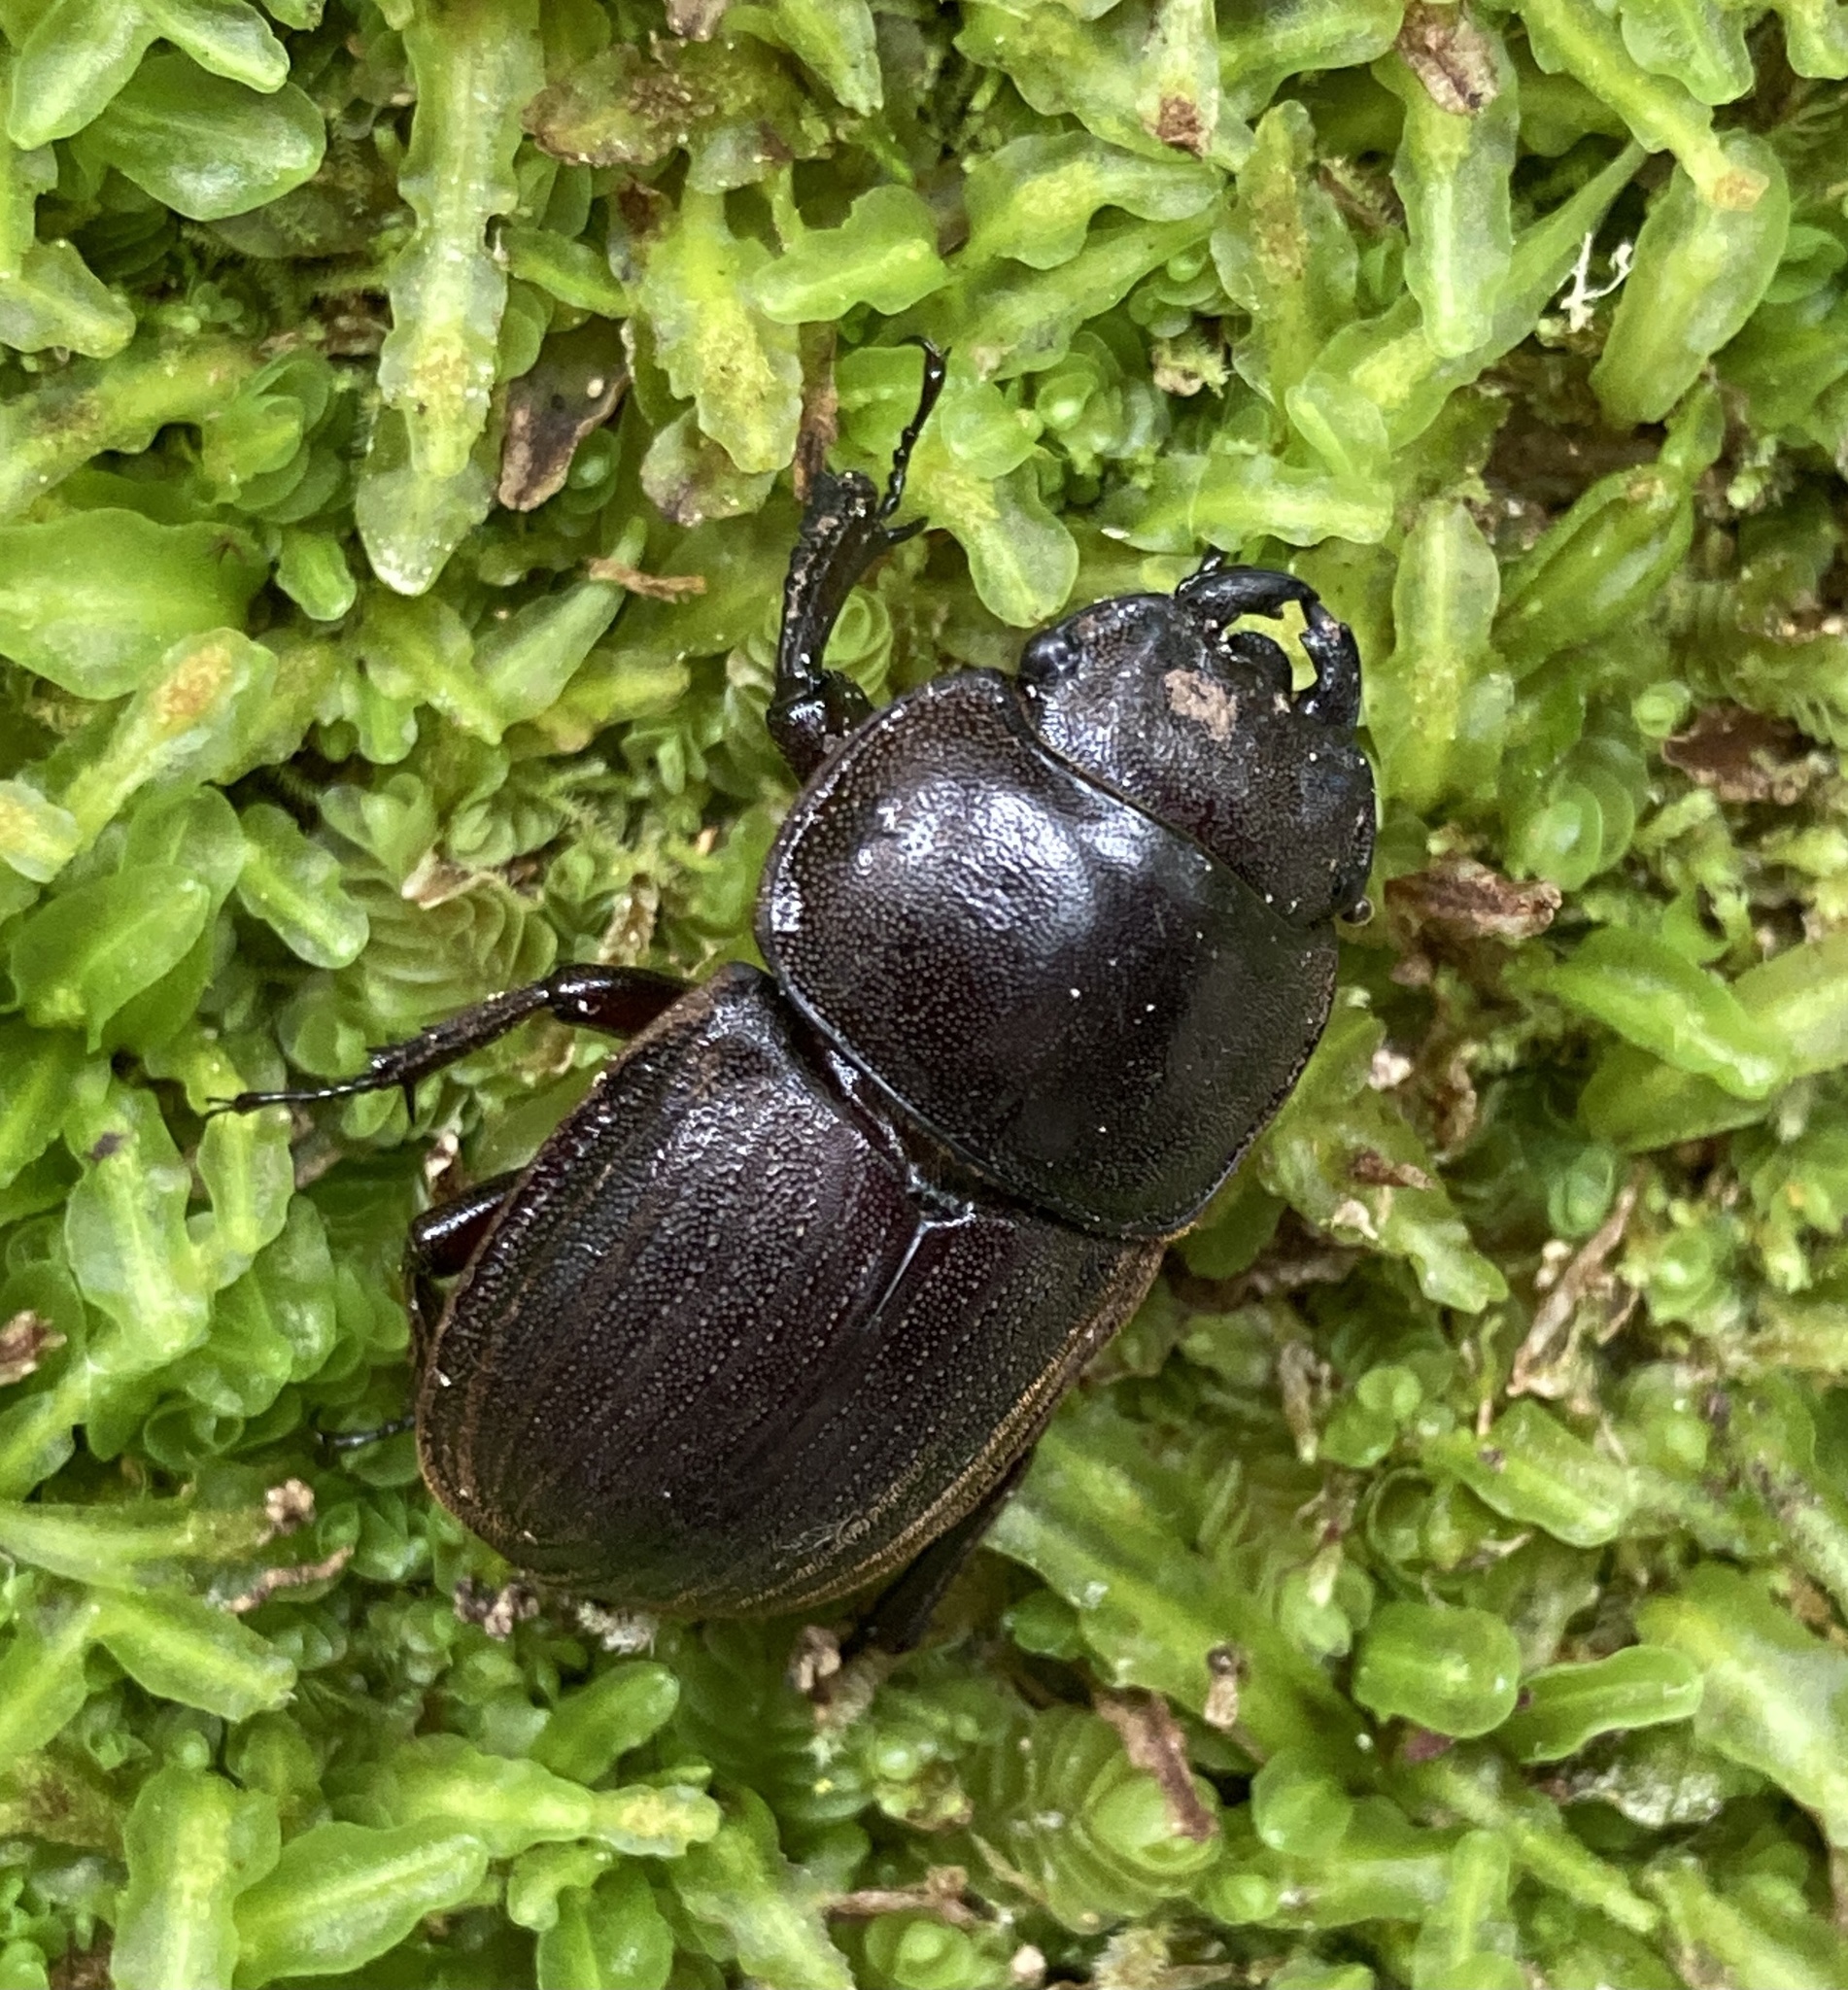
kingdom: Animalia
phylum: Arthropoda
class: Insecta
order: Coleoptera
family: Lucanidae
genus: Geodorcus
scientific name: Geodorcus helmsi
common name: Helm's stag beetle
